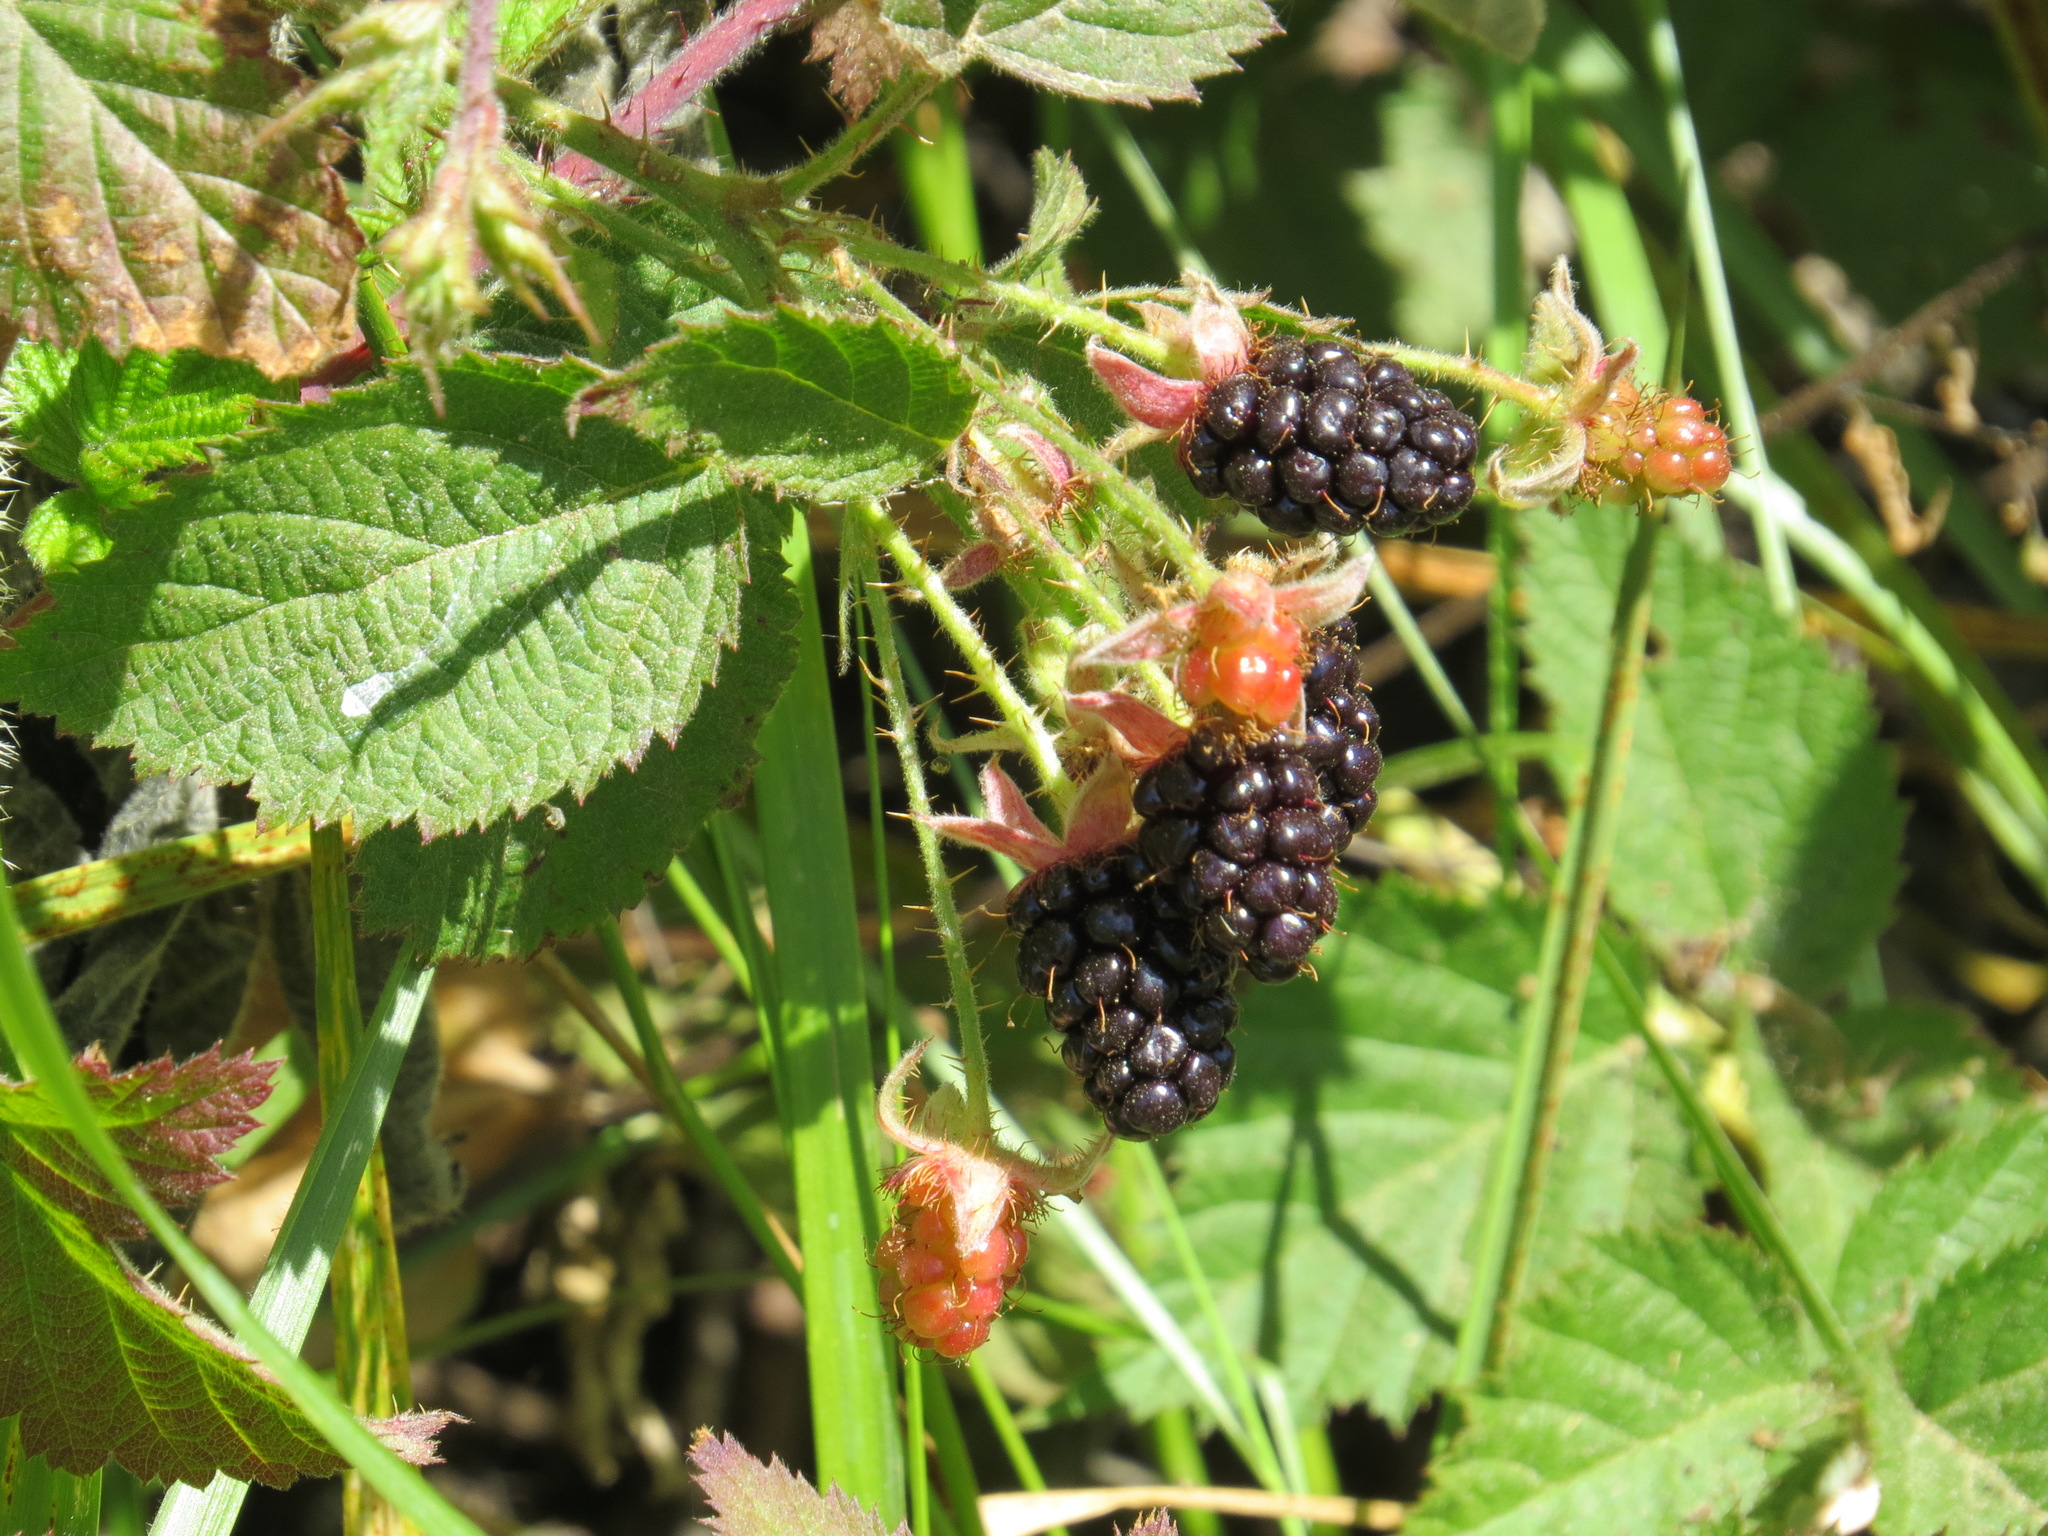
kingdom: Plantae
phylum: Tracheophyta
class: Magnoliopsida
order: Rosales
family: Rosaceae
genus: Rubus
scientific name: Rubus ursinus
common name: Pacific blackberry
